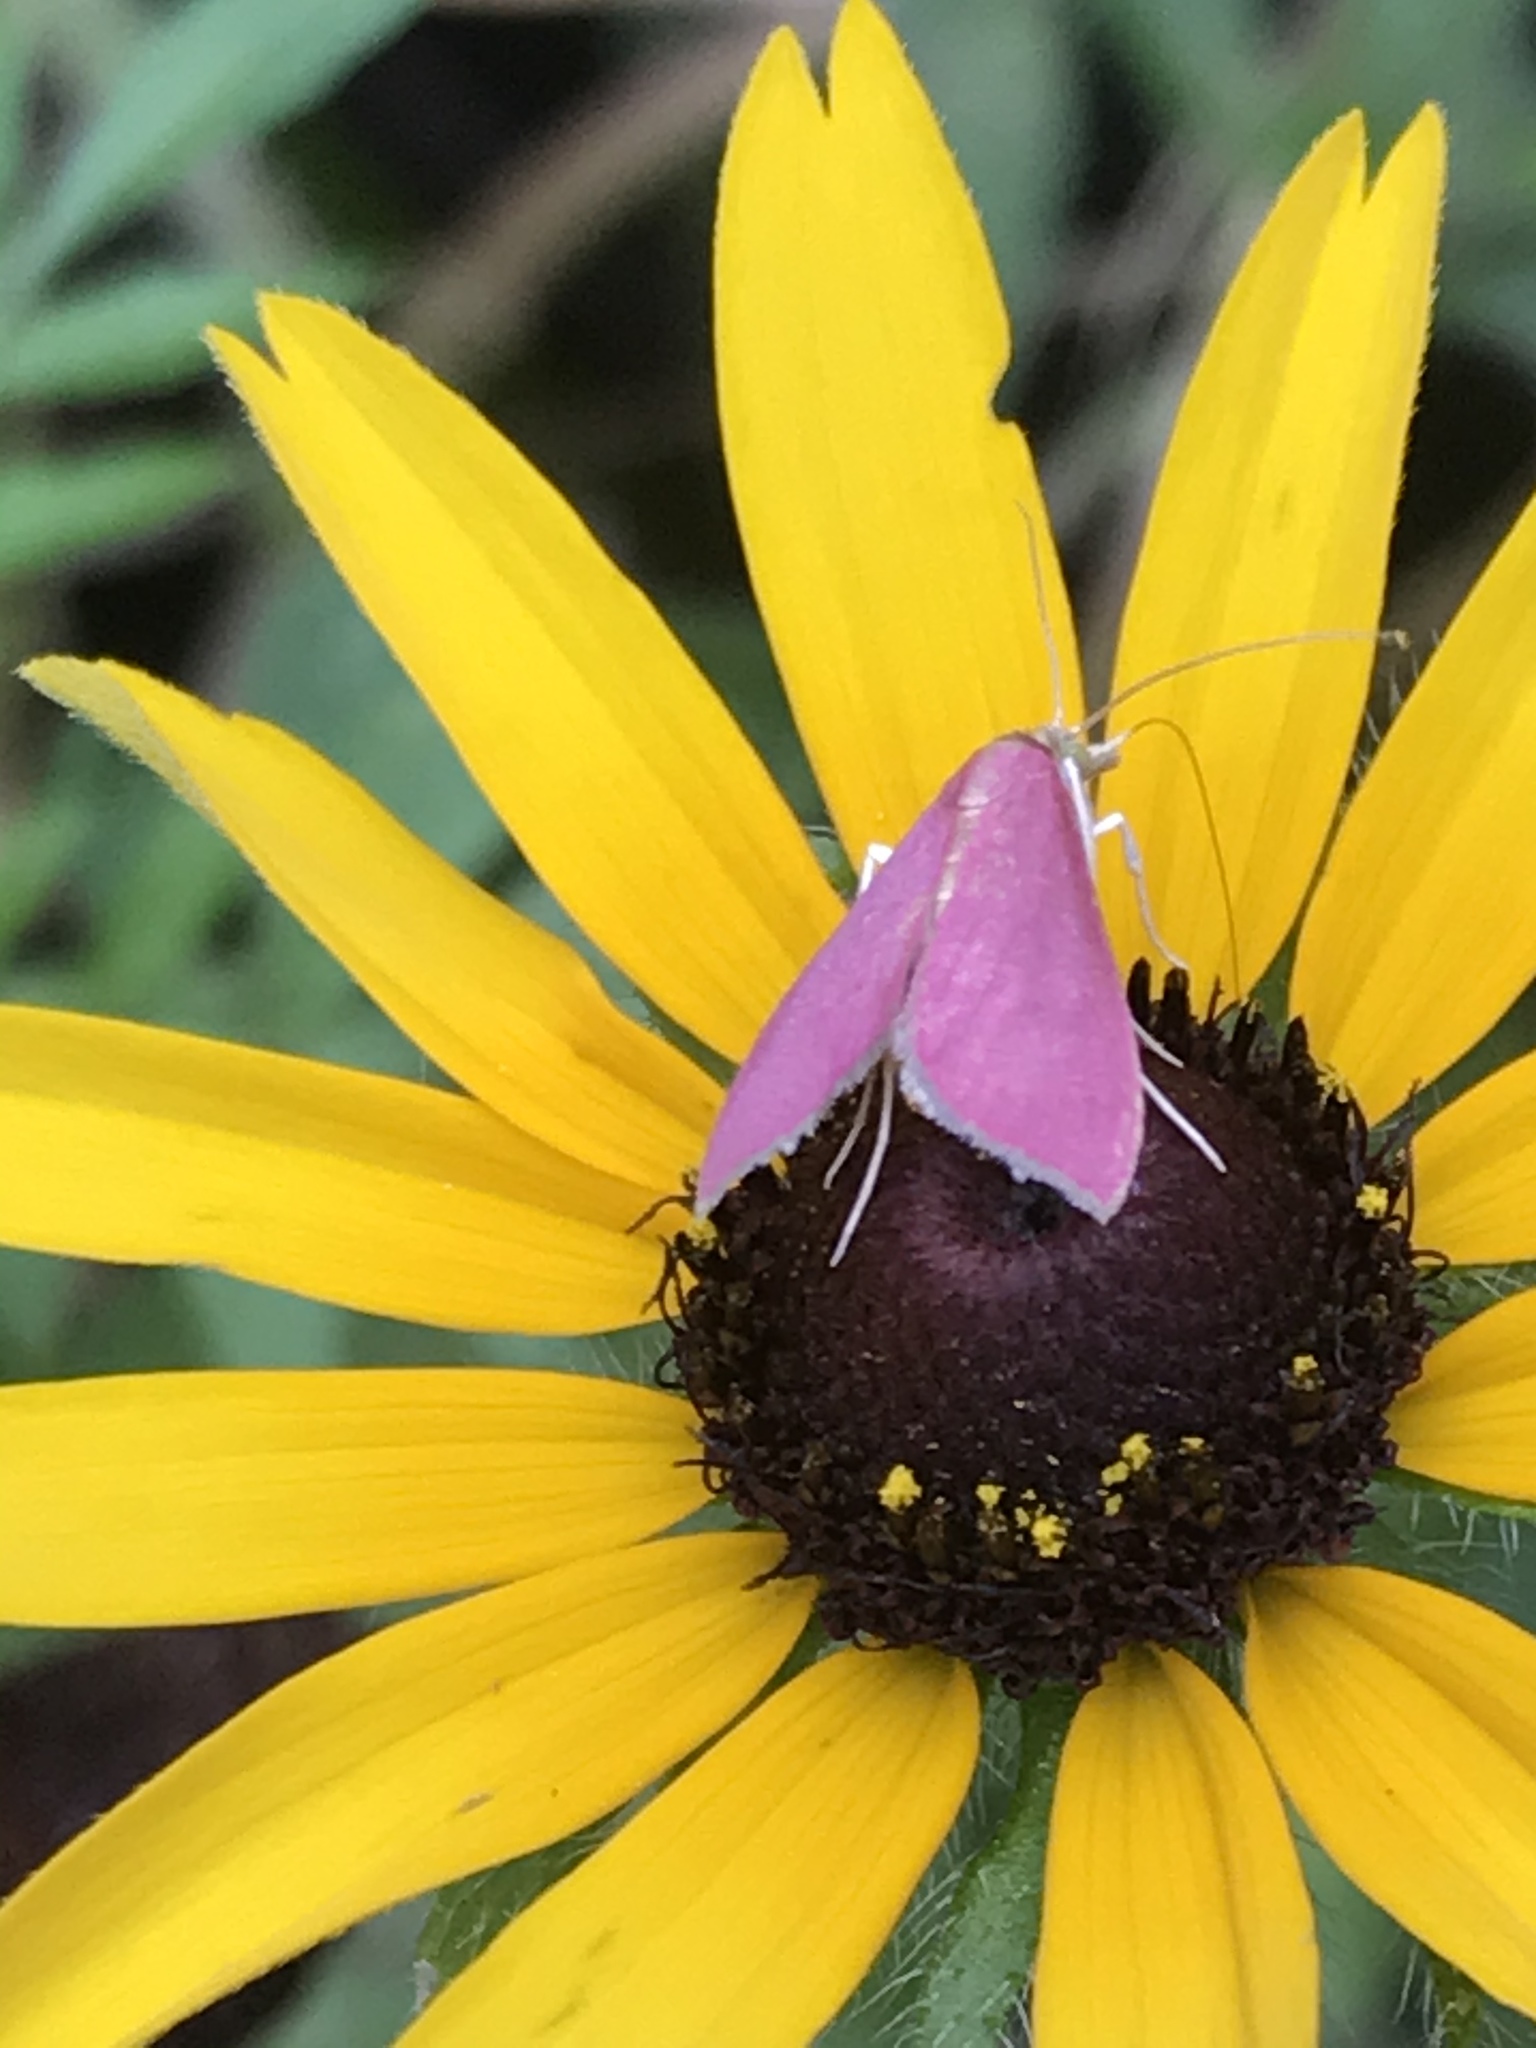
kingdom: Animalia
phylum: Arthropoda
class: Insecta
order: Lepidoptera
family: Crambidae
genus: Pyrausta
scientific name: Pyrausta inornatalis
